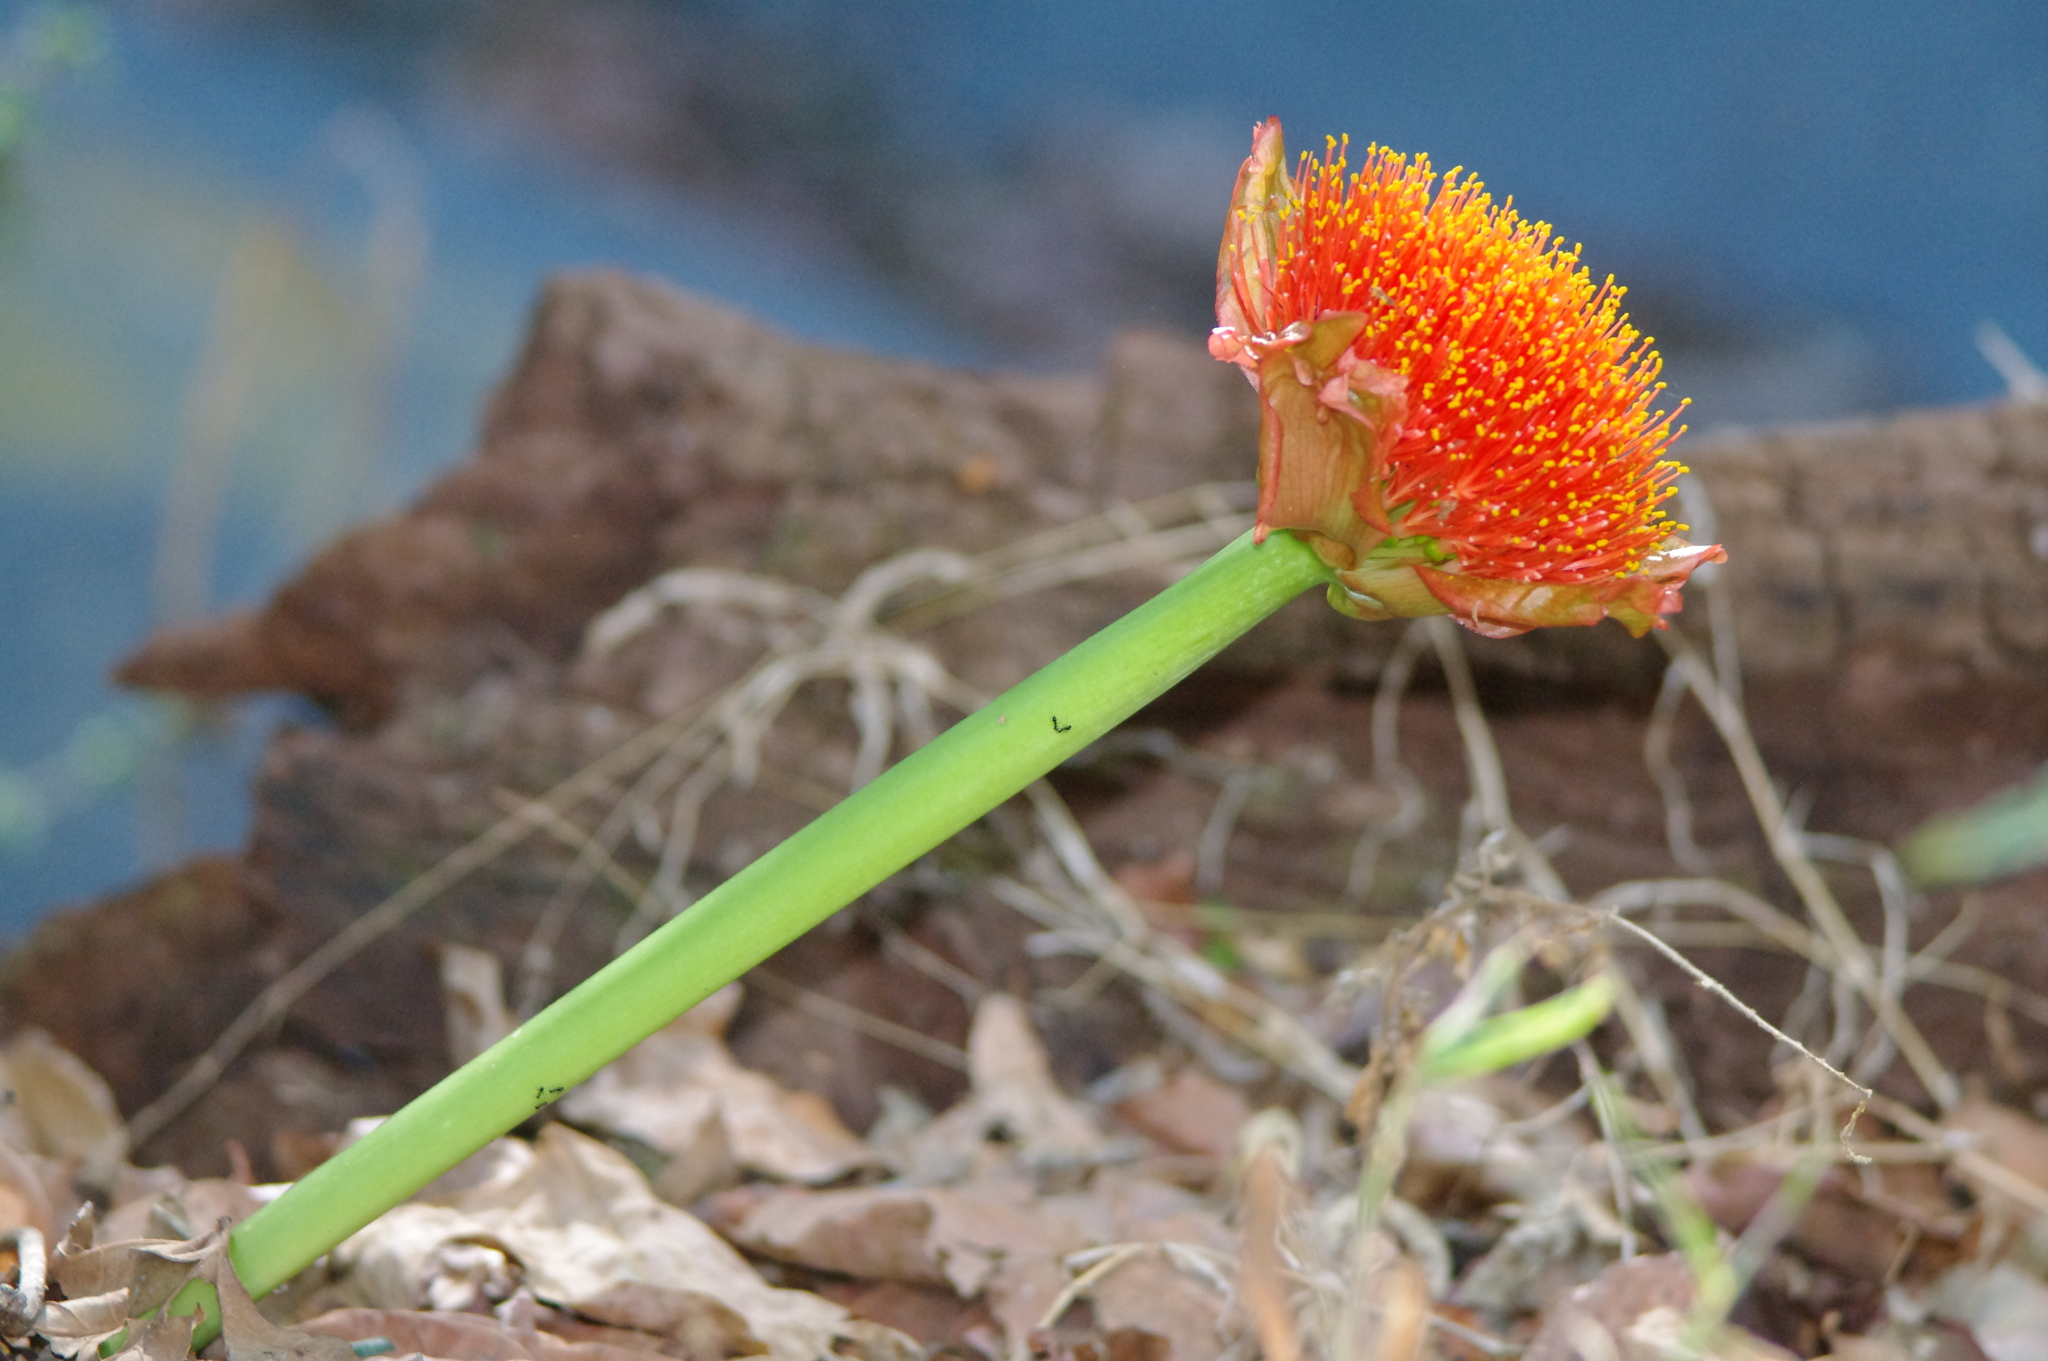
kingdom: Plantae
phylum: Tracheophyta
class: Liliopsida
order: Asparagales
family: Amaryllidaceae
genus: Scadoxus
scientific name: Scadoxus puniceus
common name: Royal-paintbrush
